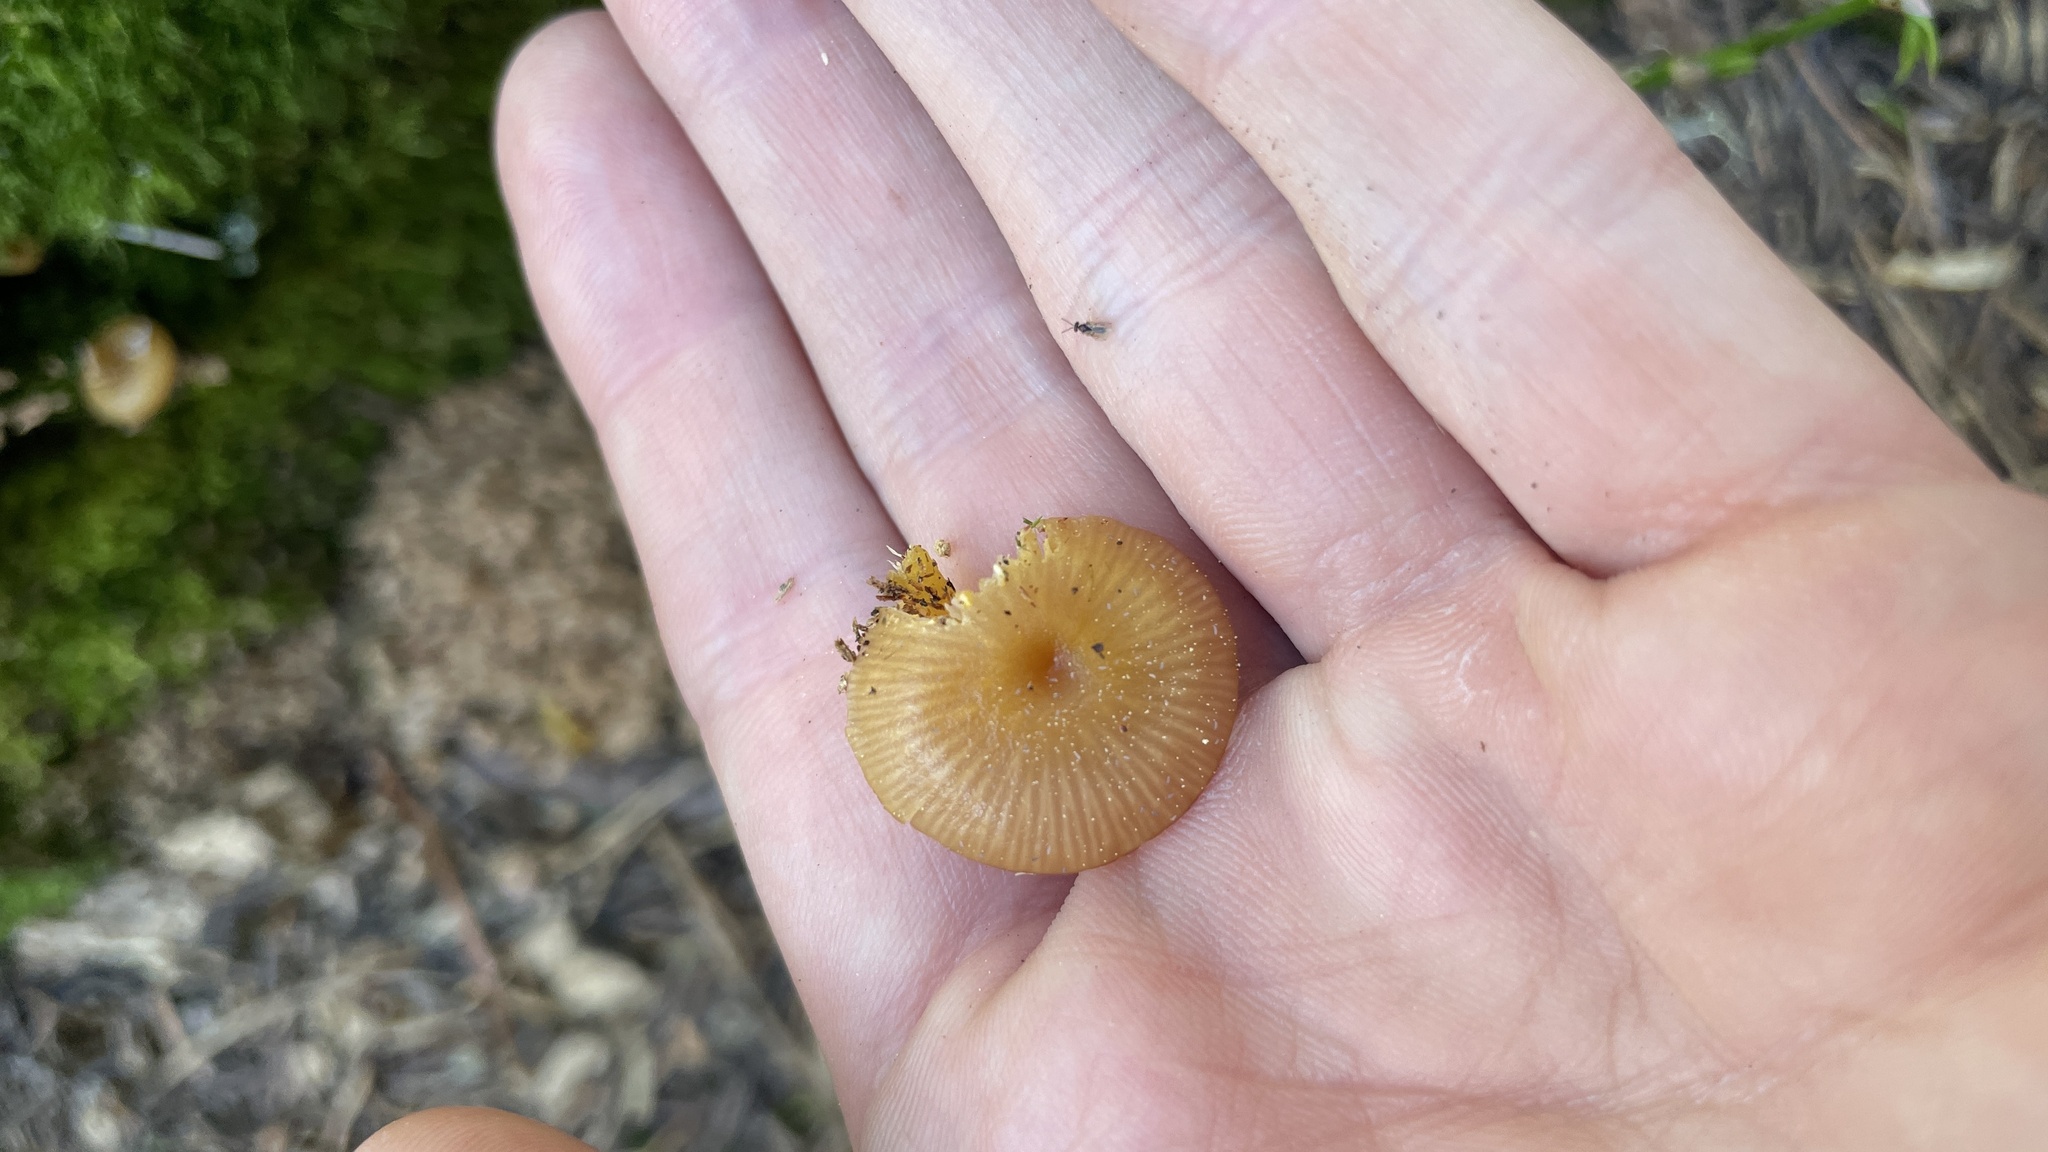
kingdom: Fungi
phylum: Basidiomycota
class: Agaricomycetes
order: Agaricales
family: Hygrophoraceae
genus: Chromosera
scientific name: Chromosera cyanophylla
